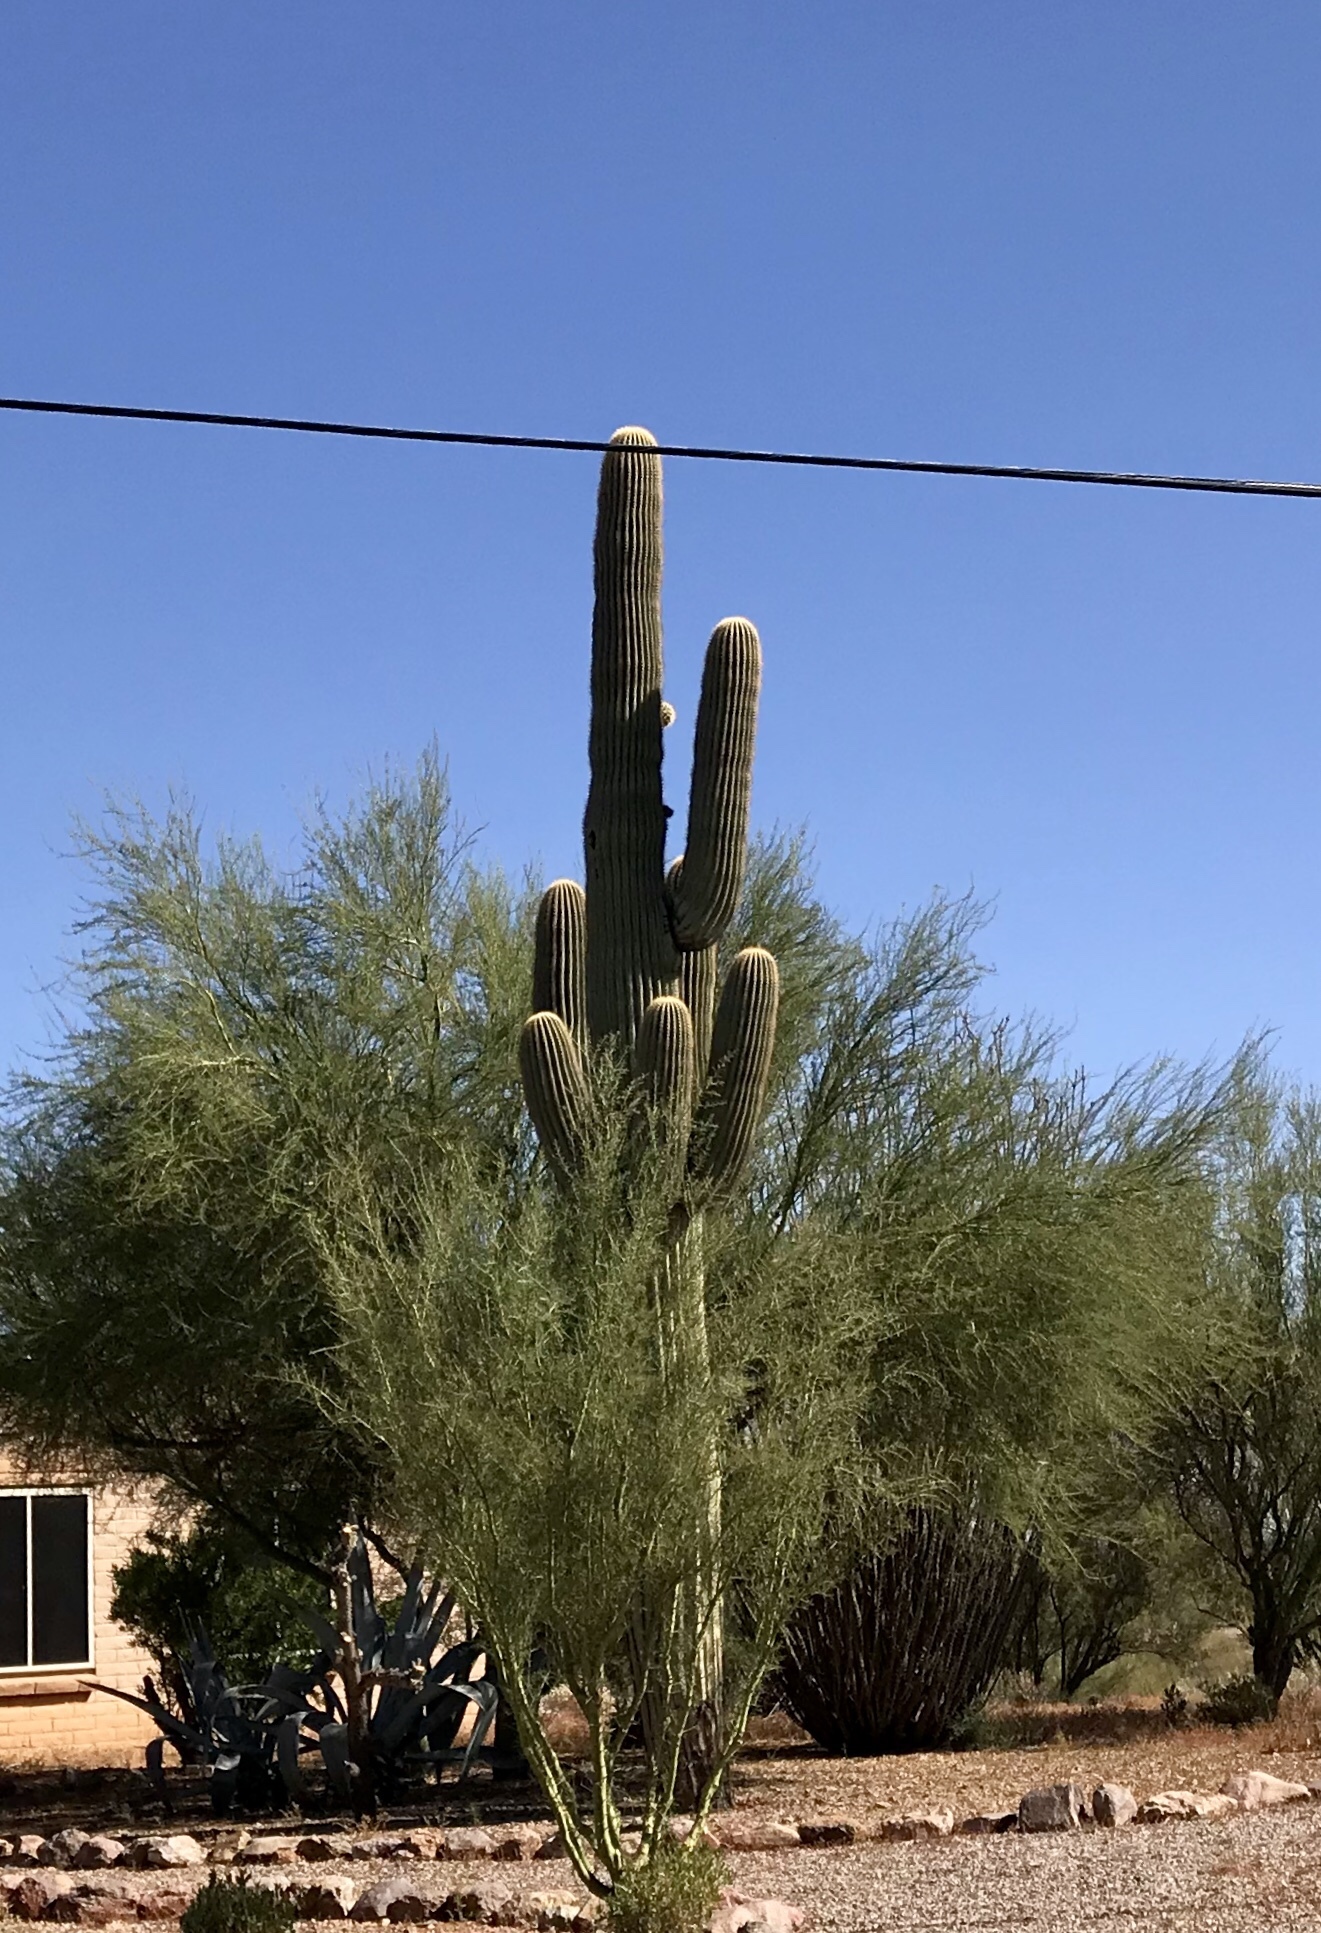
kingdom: Plantae
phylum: Tracheophyta
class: Magnoliopsida
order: Caryophyllales
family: Cactaceae
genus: Carnegiea
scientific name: Carnegiea gigantea
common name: Saguaro
